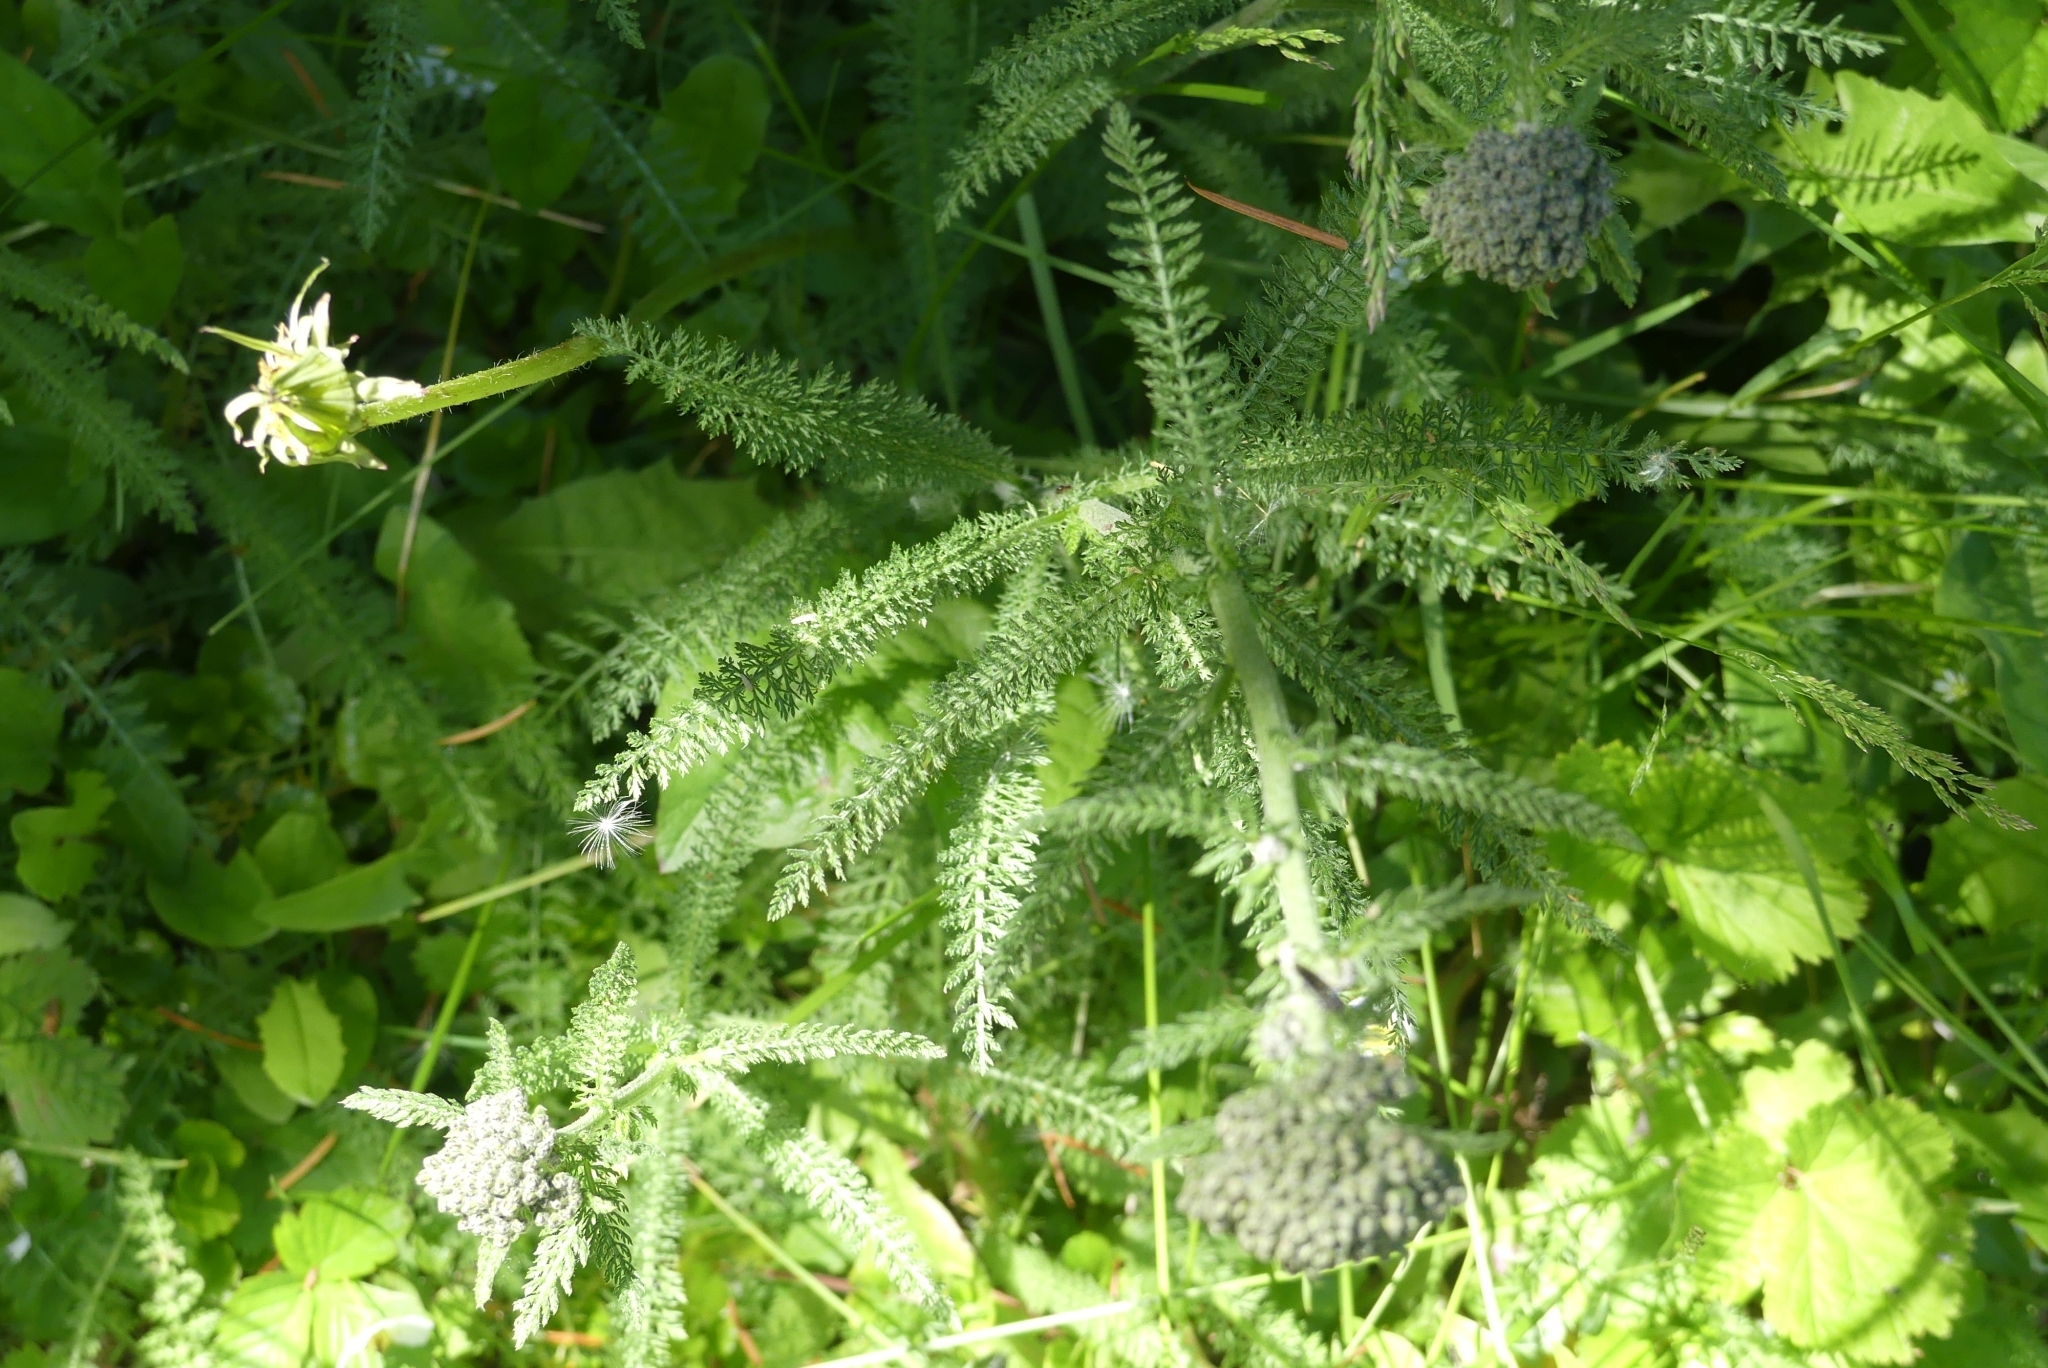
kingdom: Plantae
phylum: Tracheophyta
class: Magnoliopsida
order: Asterales
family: Asteraceae
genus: Achillea
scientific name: Achillea millefolium
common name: Yarrow
